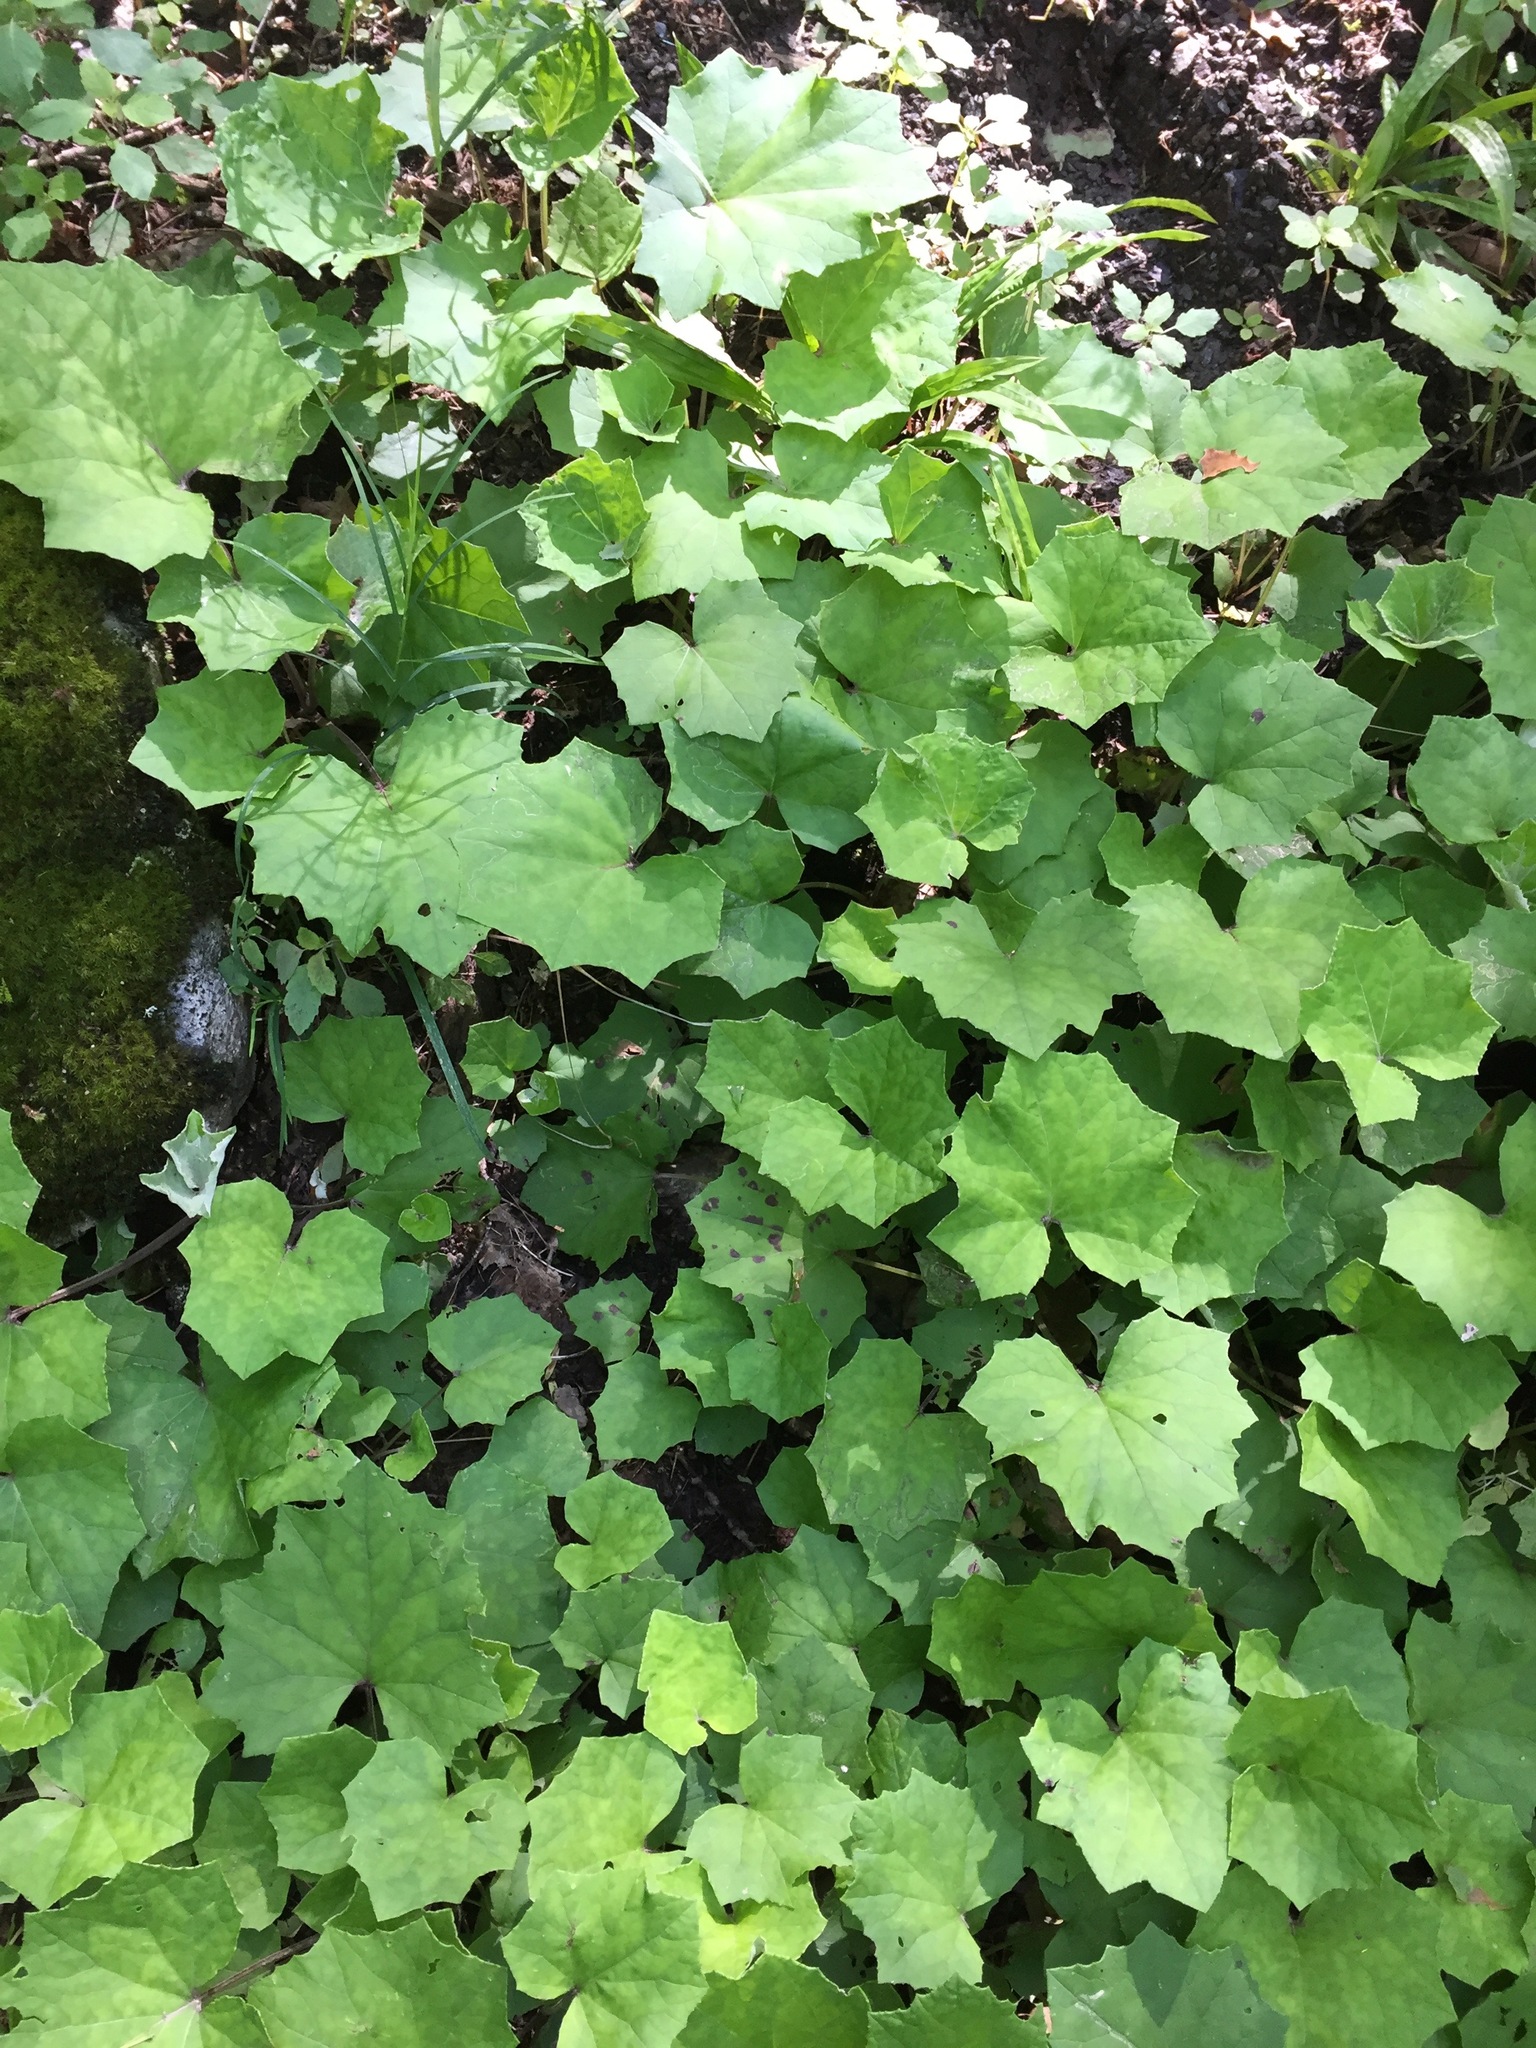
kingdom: Plantae
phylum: Tracheophyta
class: Magnoliopsida
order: Asterales
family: Asteraceae
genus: Tussilago
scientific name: Tussilago farfara
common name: Coltsfoot
